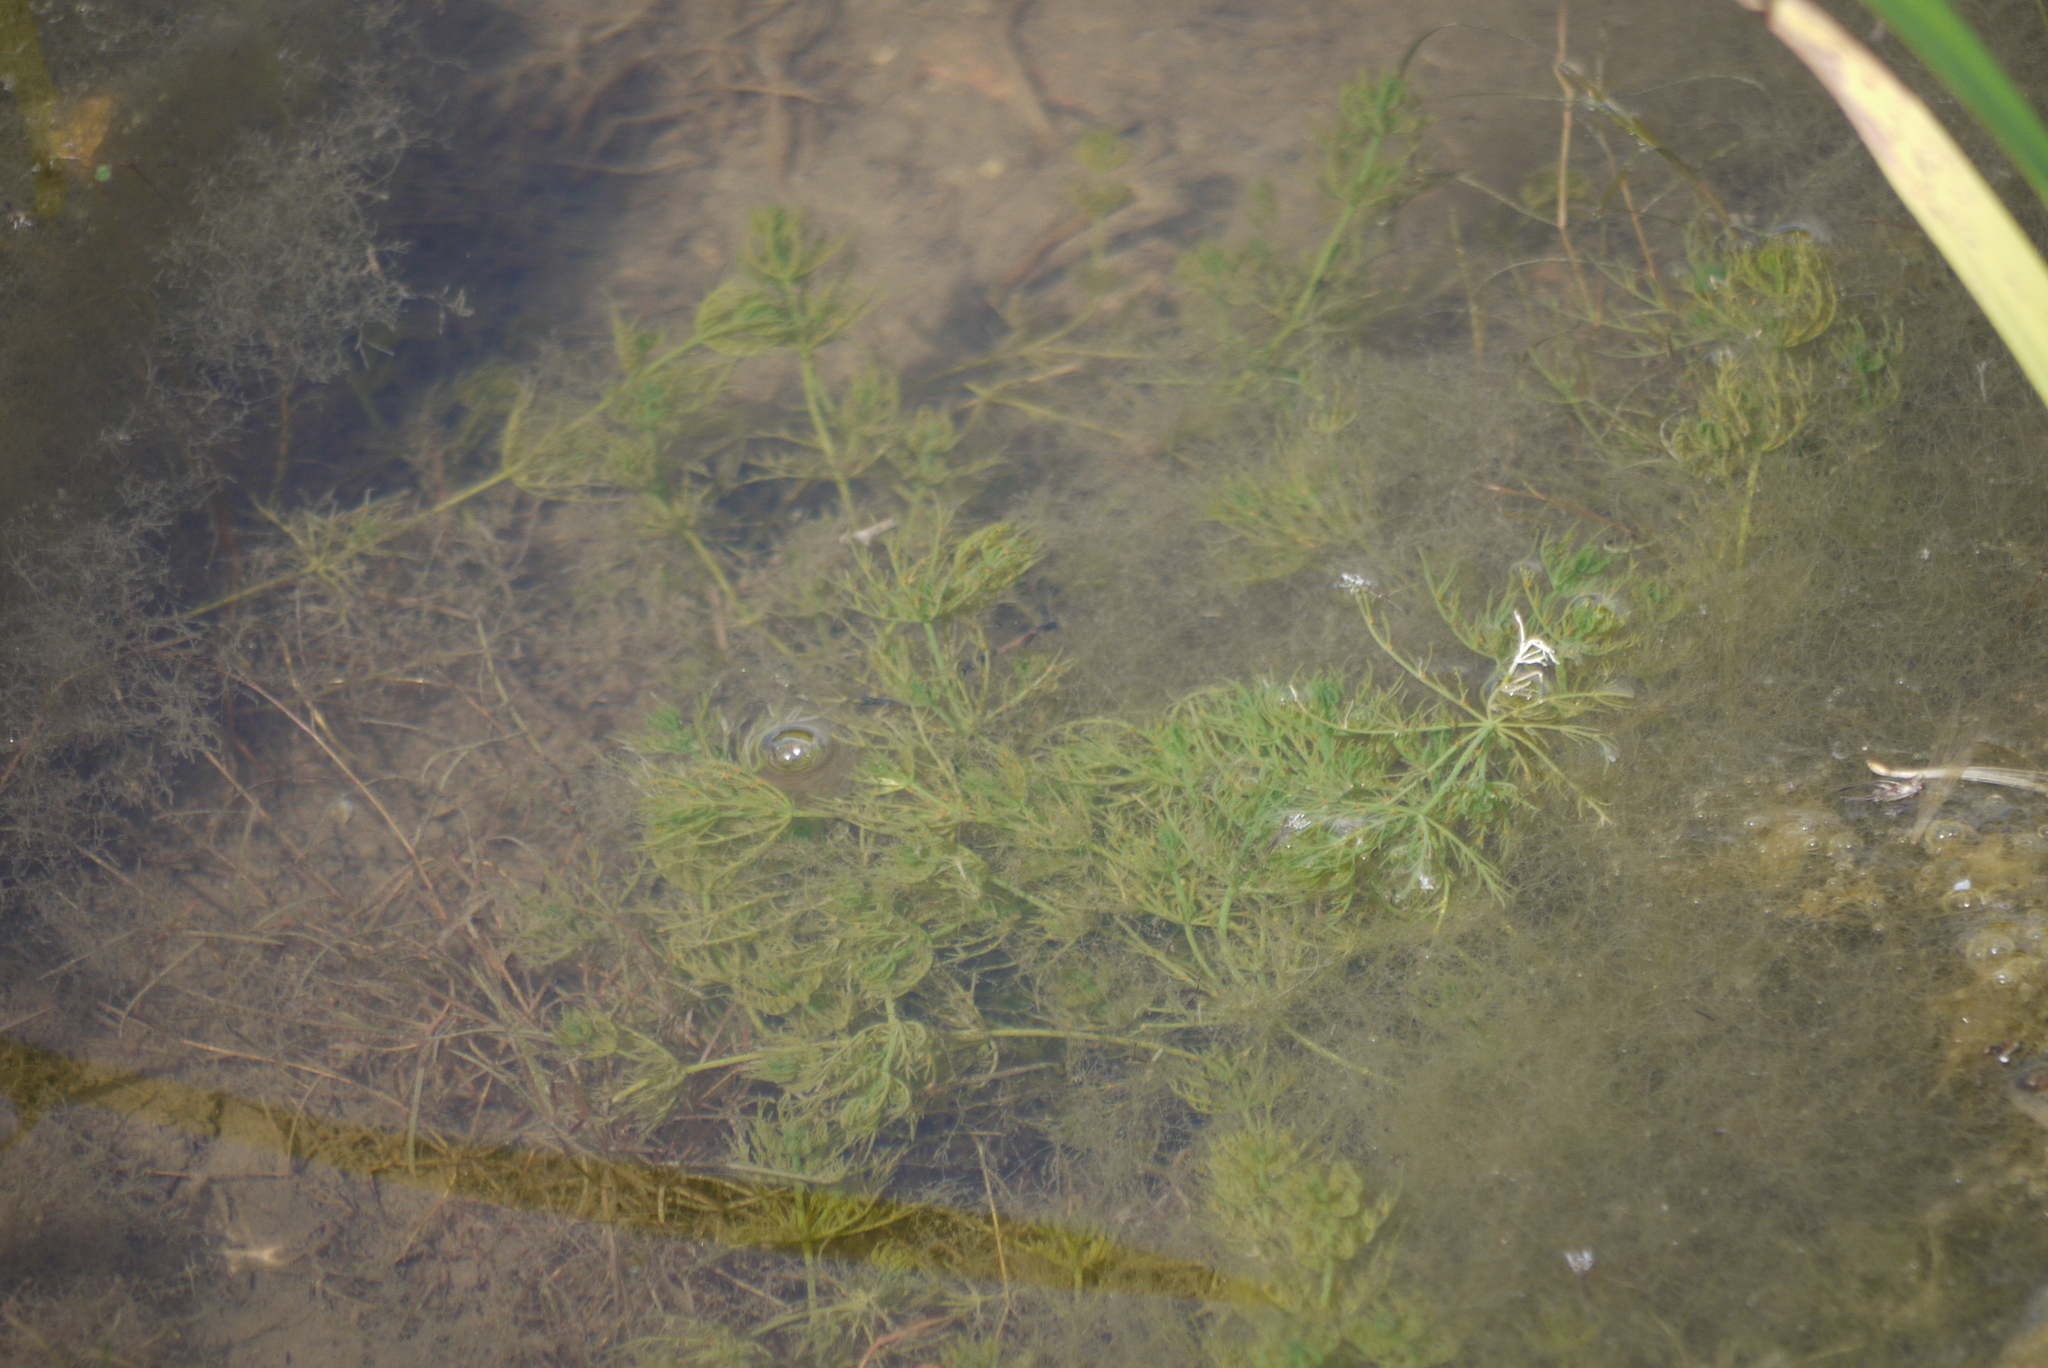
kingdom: Plantae
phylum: Charophyta
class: Charophyceae
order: Charales
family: Characeae
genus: Chara
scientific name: Chara vulgaris
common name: Common stonewort
